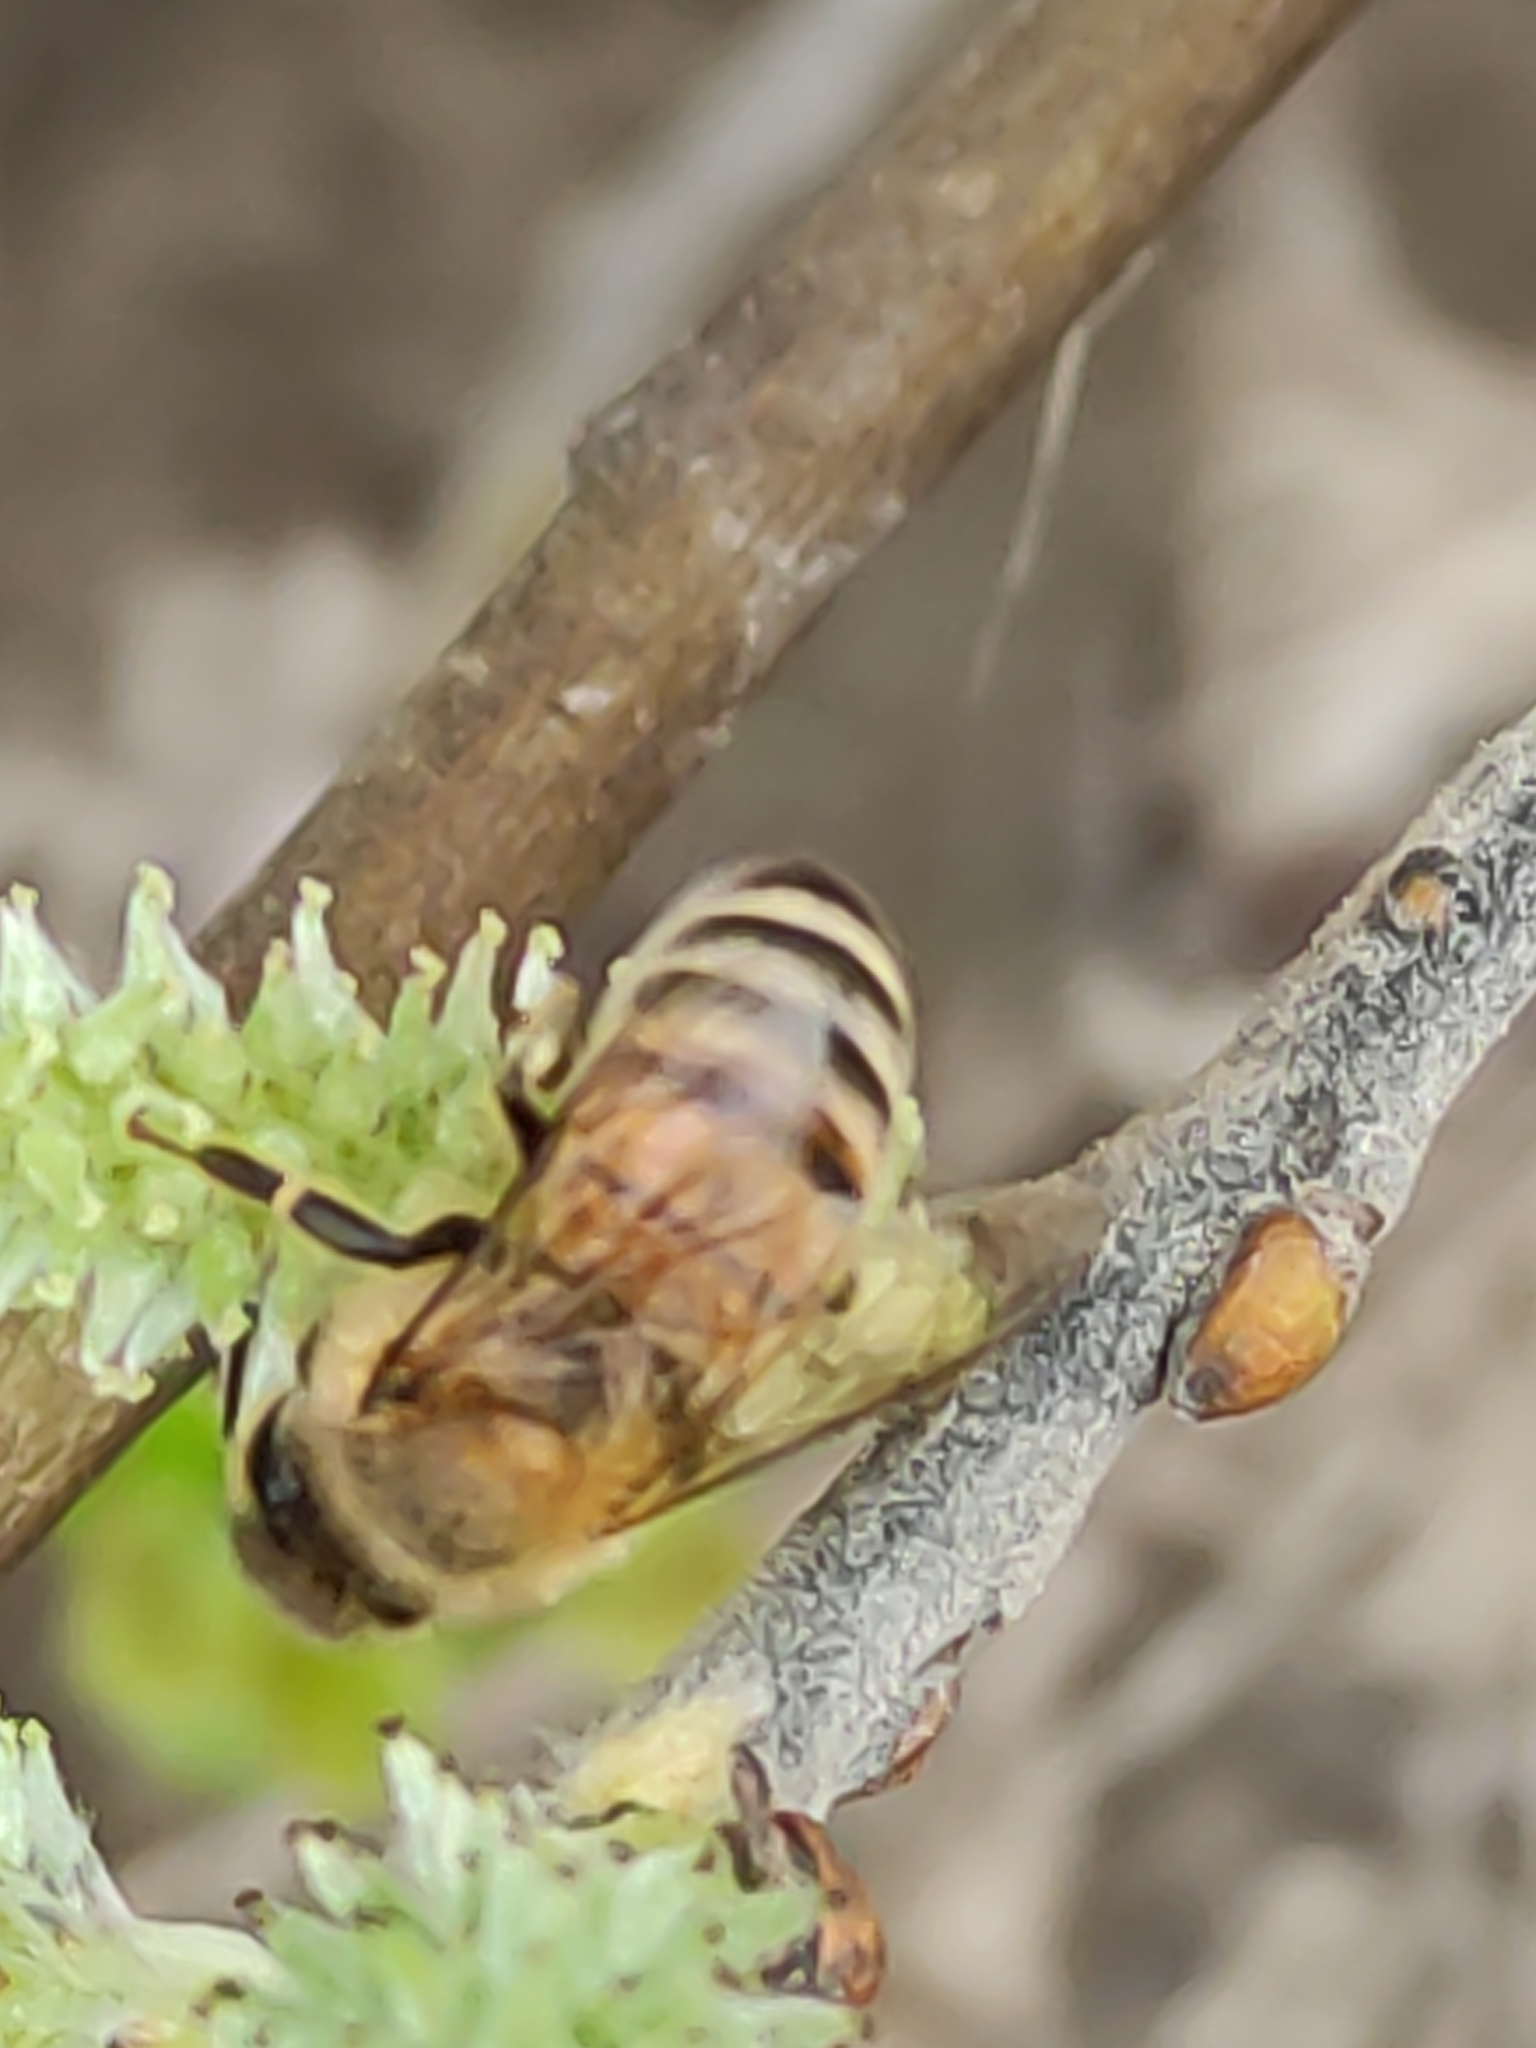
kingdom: Animalia
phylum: Arthropoda
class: Insecta
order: Hymenoptera
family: Apidae
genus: Apis
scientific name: Apis mellifera
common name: Honey bee
